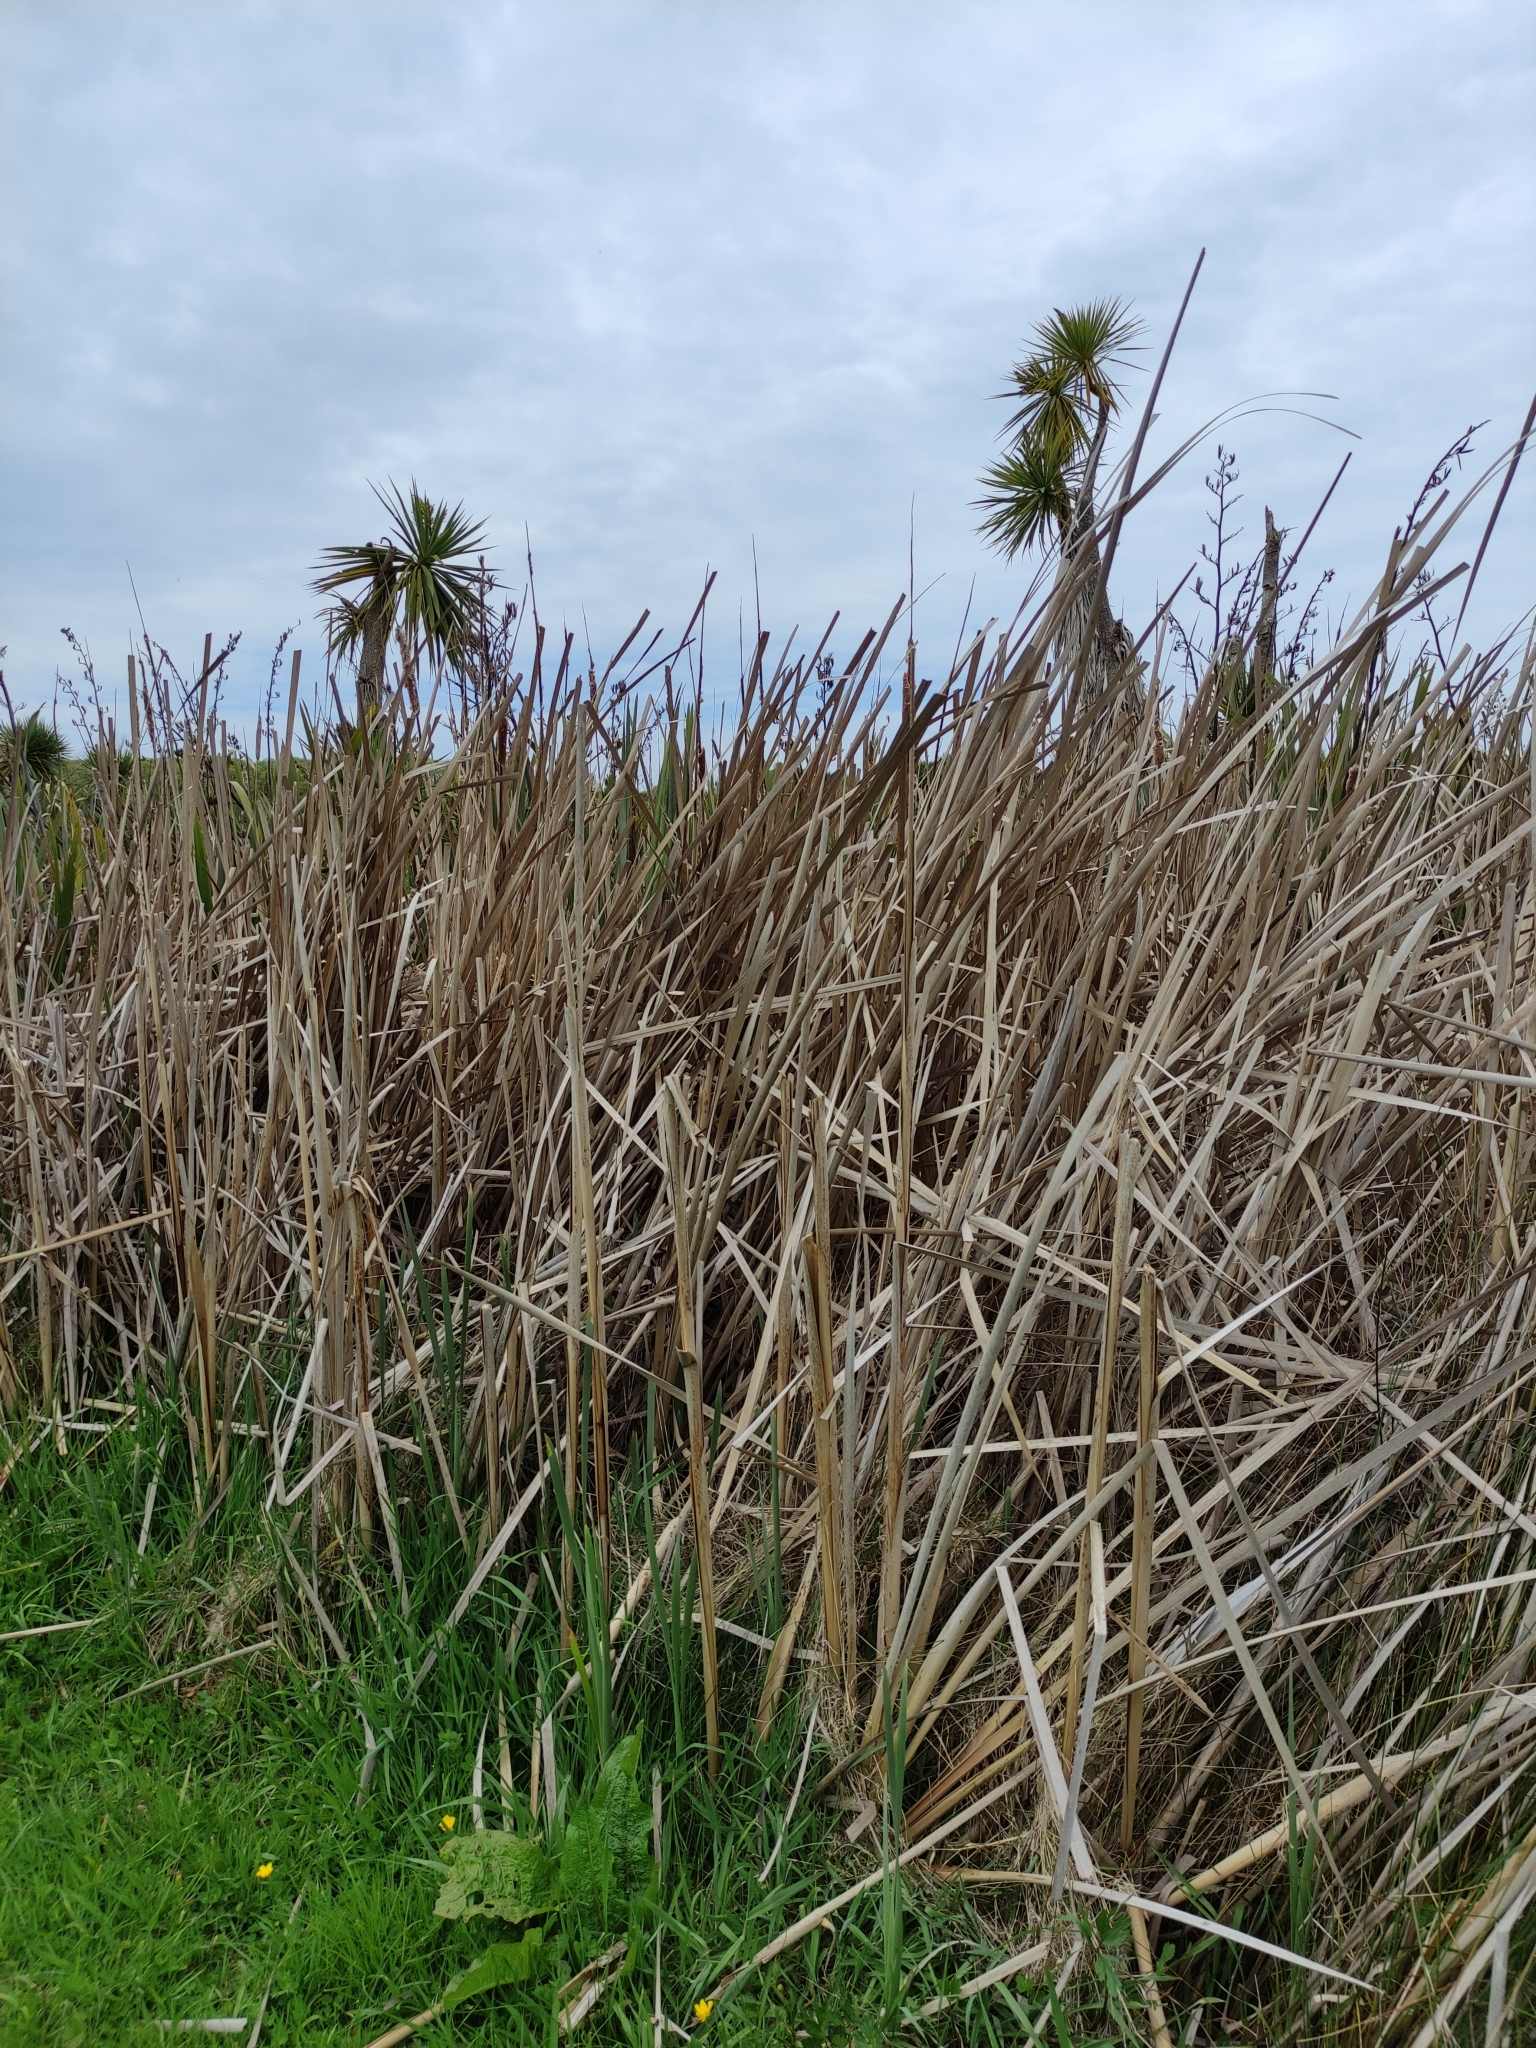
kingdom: Plantae
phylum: Tracheophyta
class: Liliopsida
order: Poales
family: Typhaceae
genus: Typha
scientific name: Typha orientalis
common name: Bullrush
